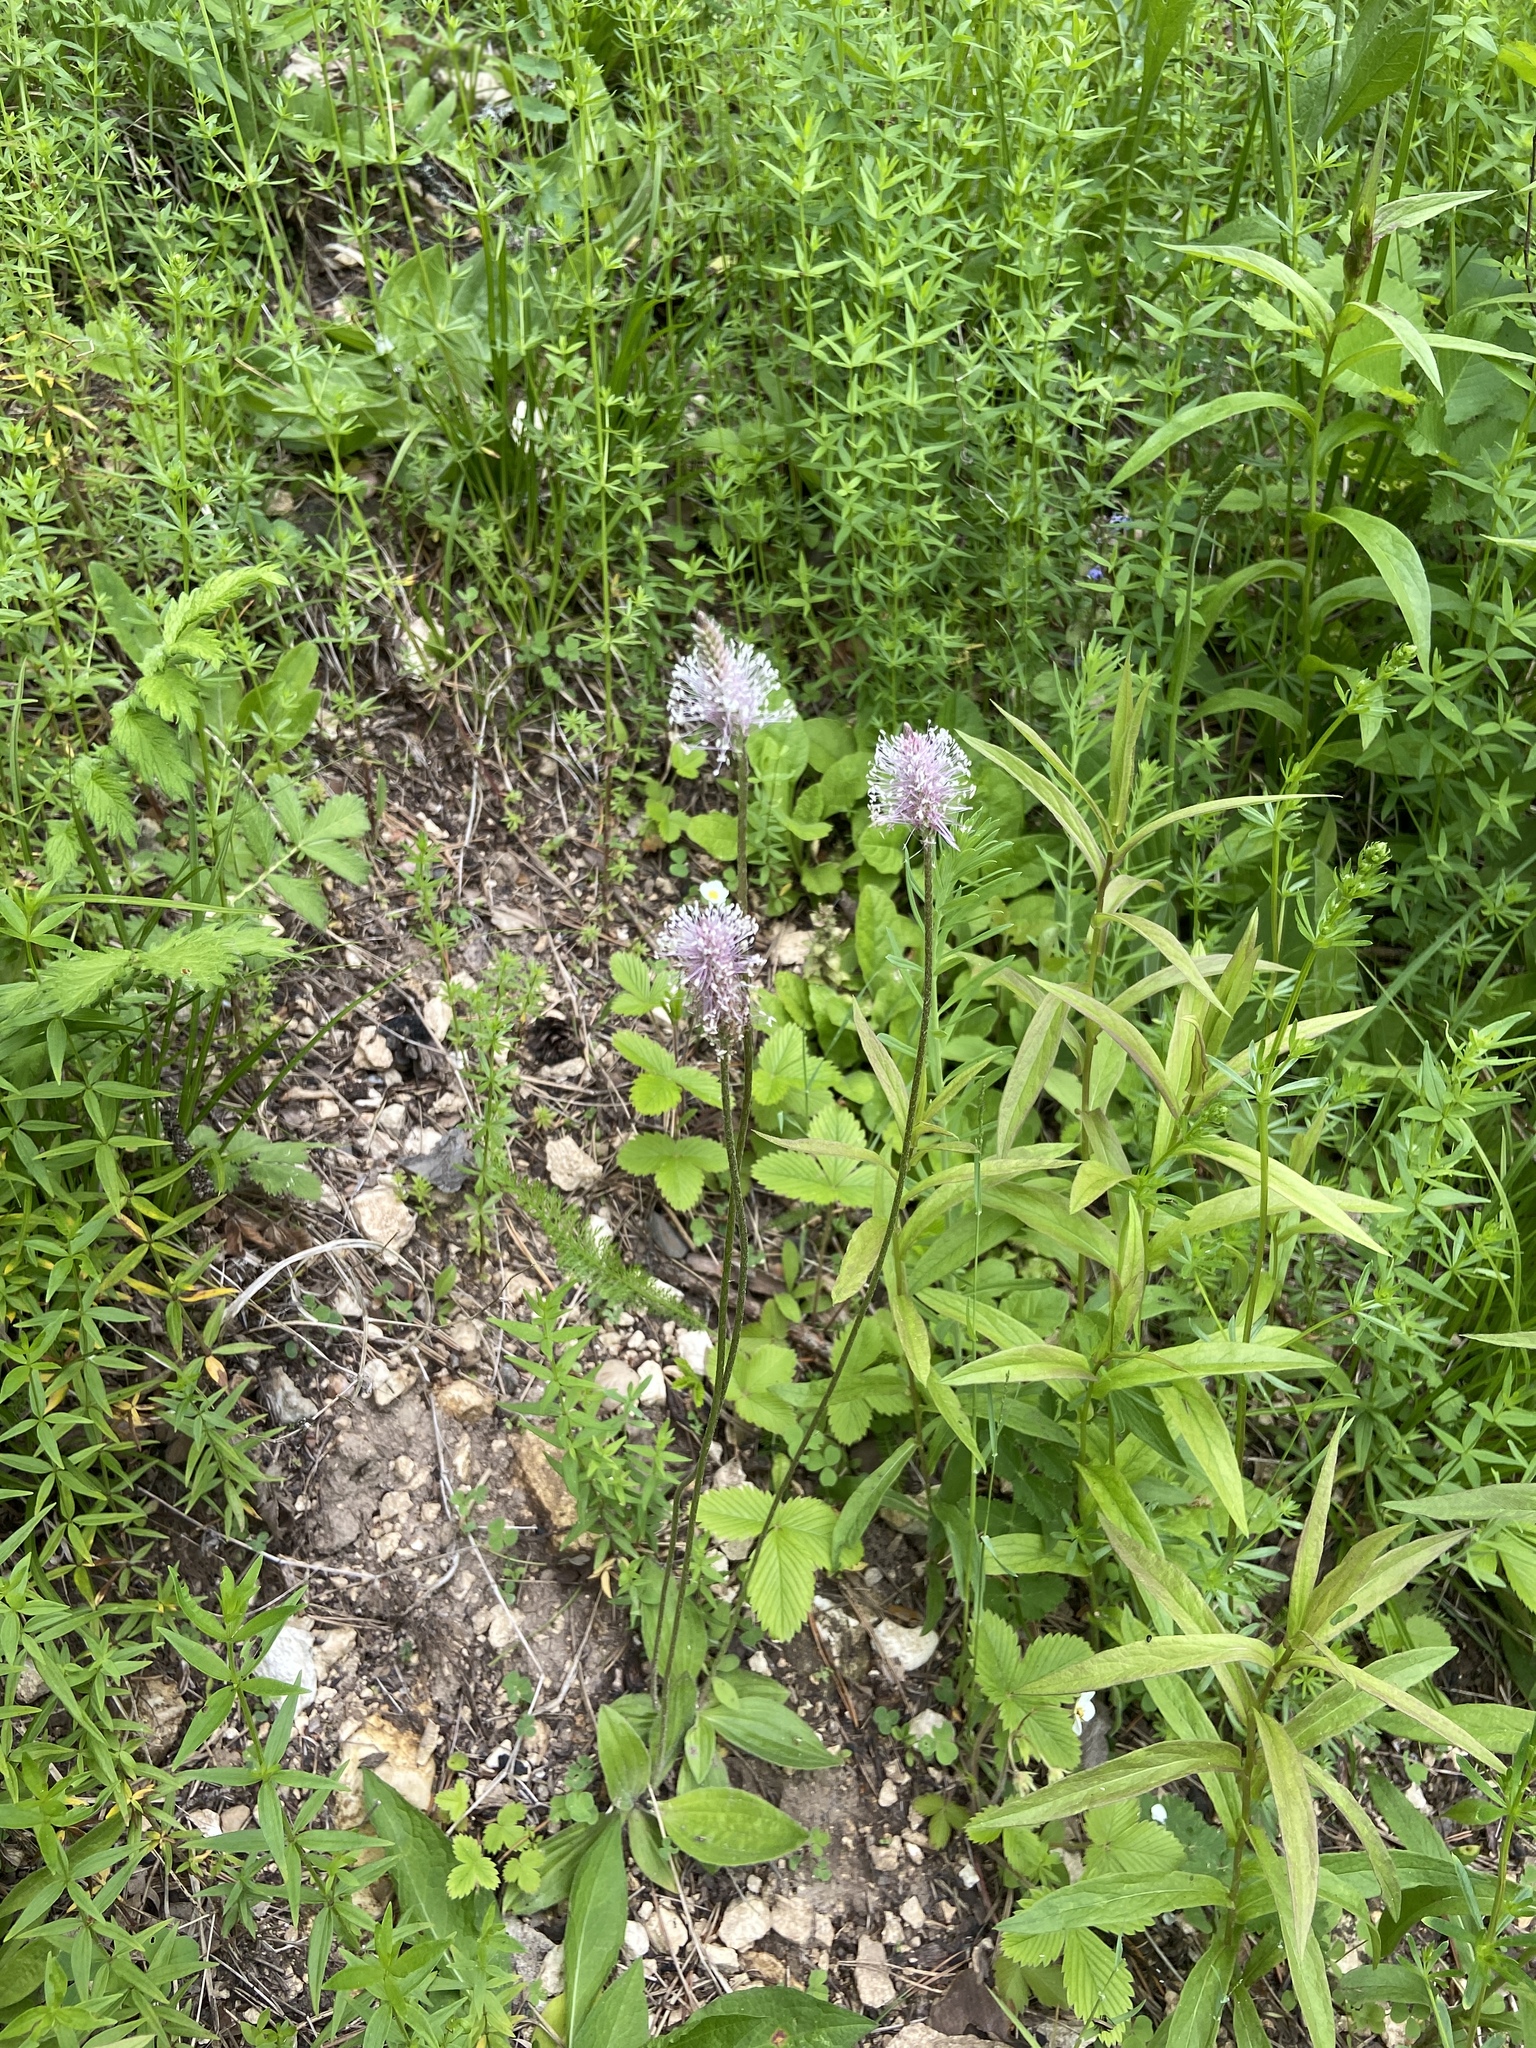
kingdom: Plantae
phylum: Tracheophyta
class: Magnoliopsida
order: Lamiales
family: Plantaginaceae
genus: Plantago
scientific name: Plantago media
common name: Hoary plantain
